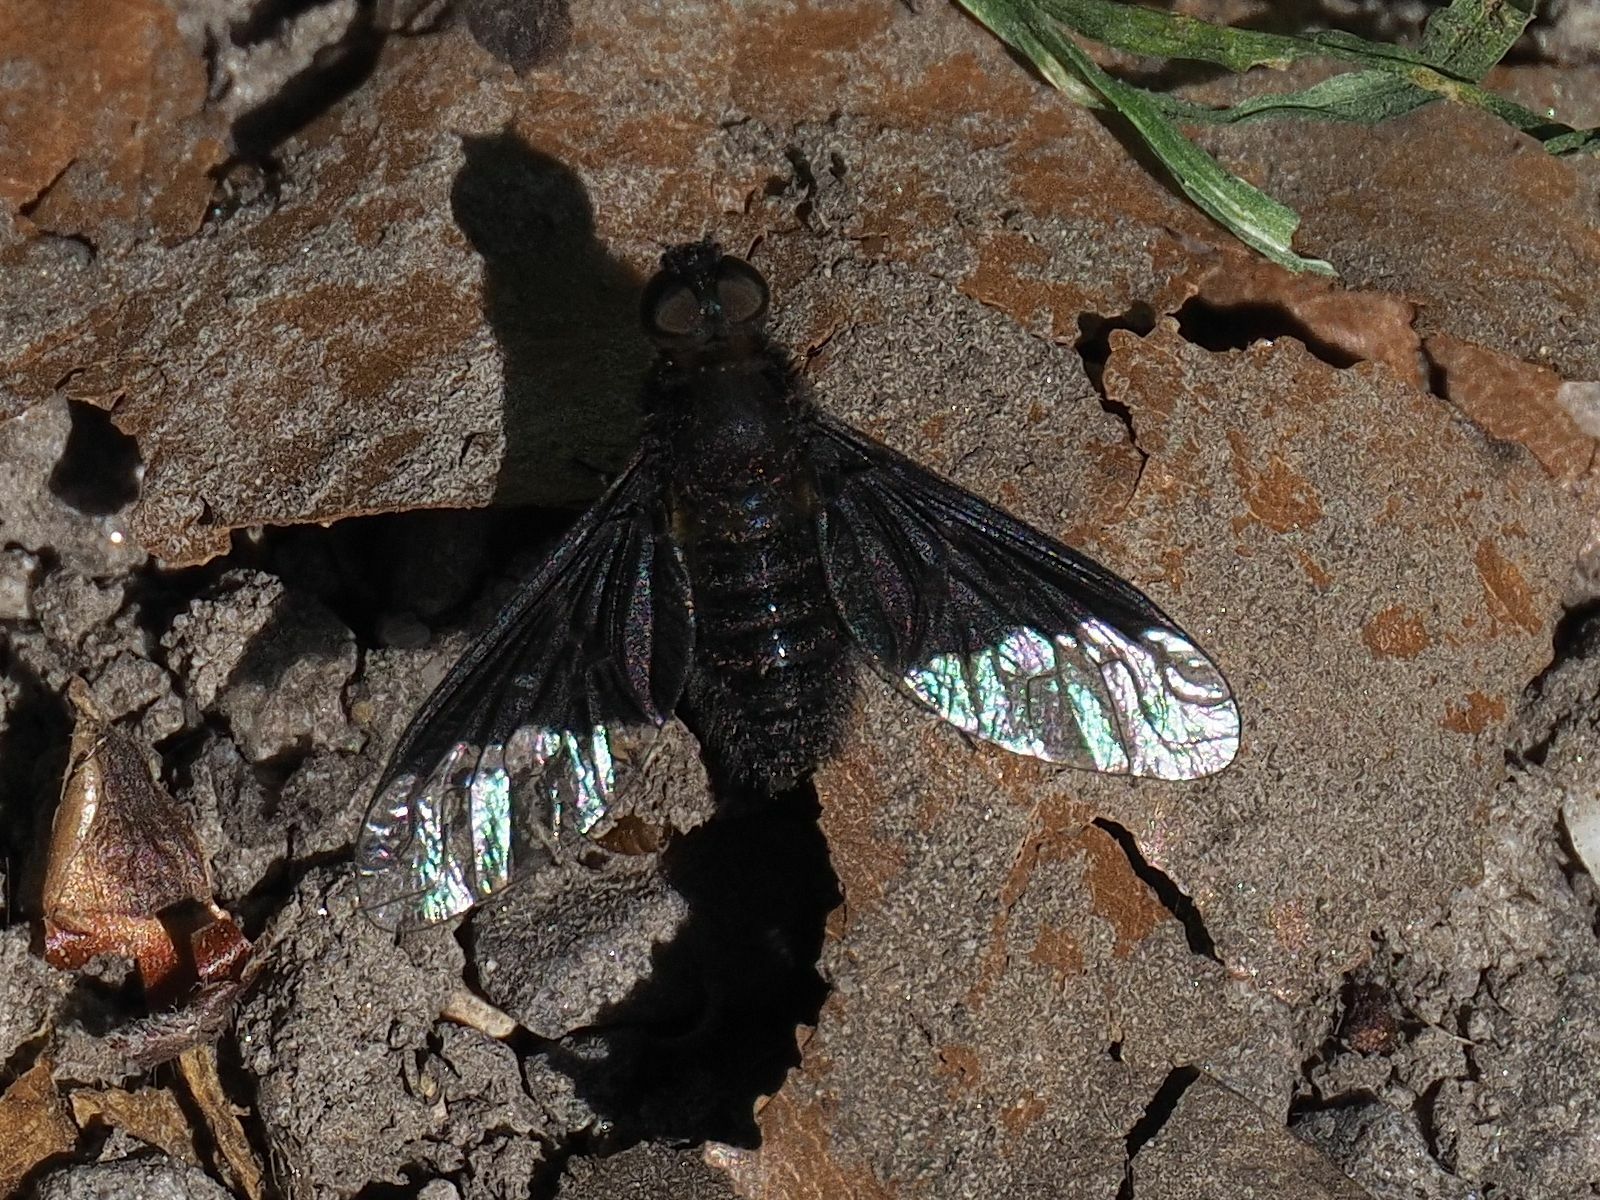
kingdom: Animalia
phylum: Arthropoda
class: Insecta
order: Diptera
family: Bombyliidae
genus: Hemipenthes
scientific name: Hemipenthes morio
